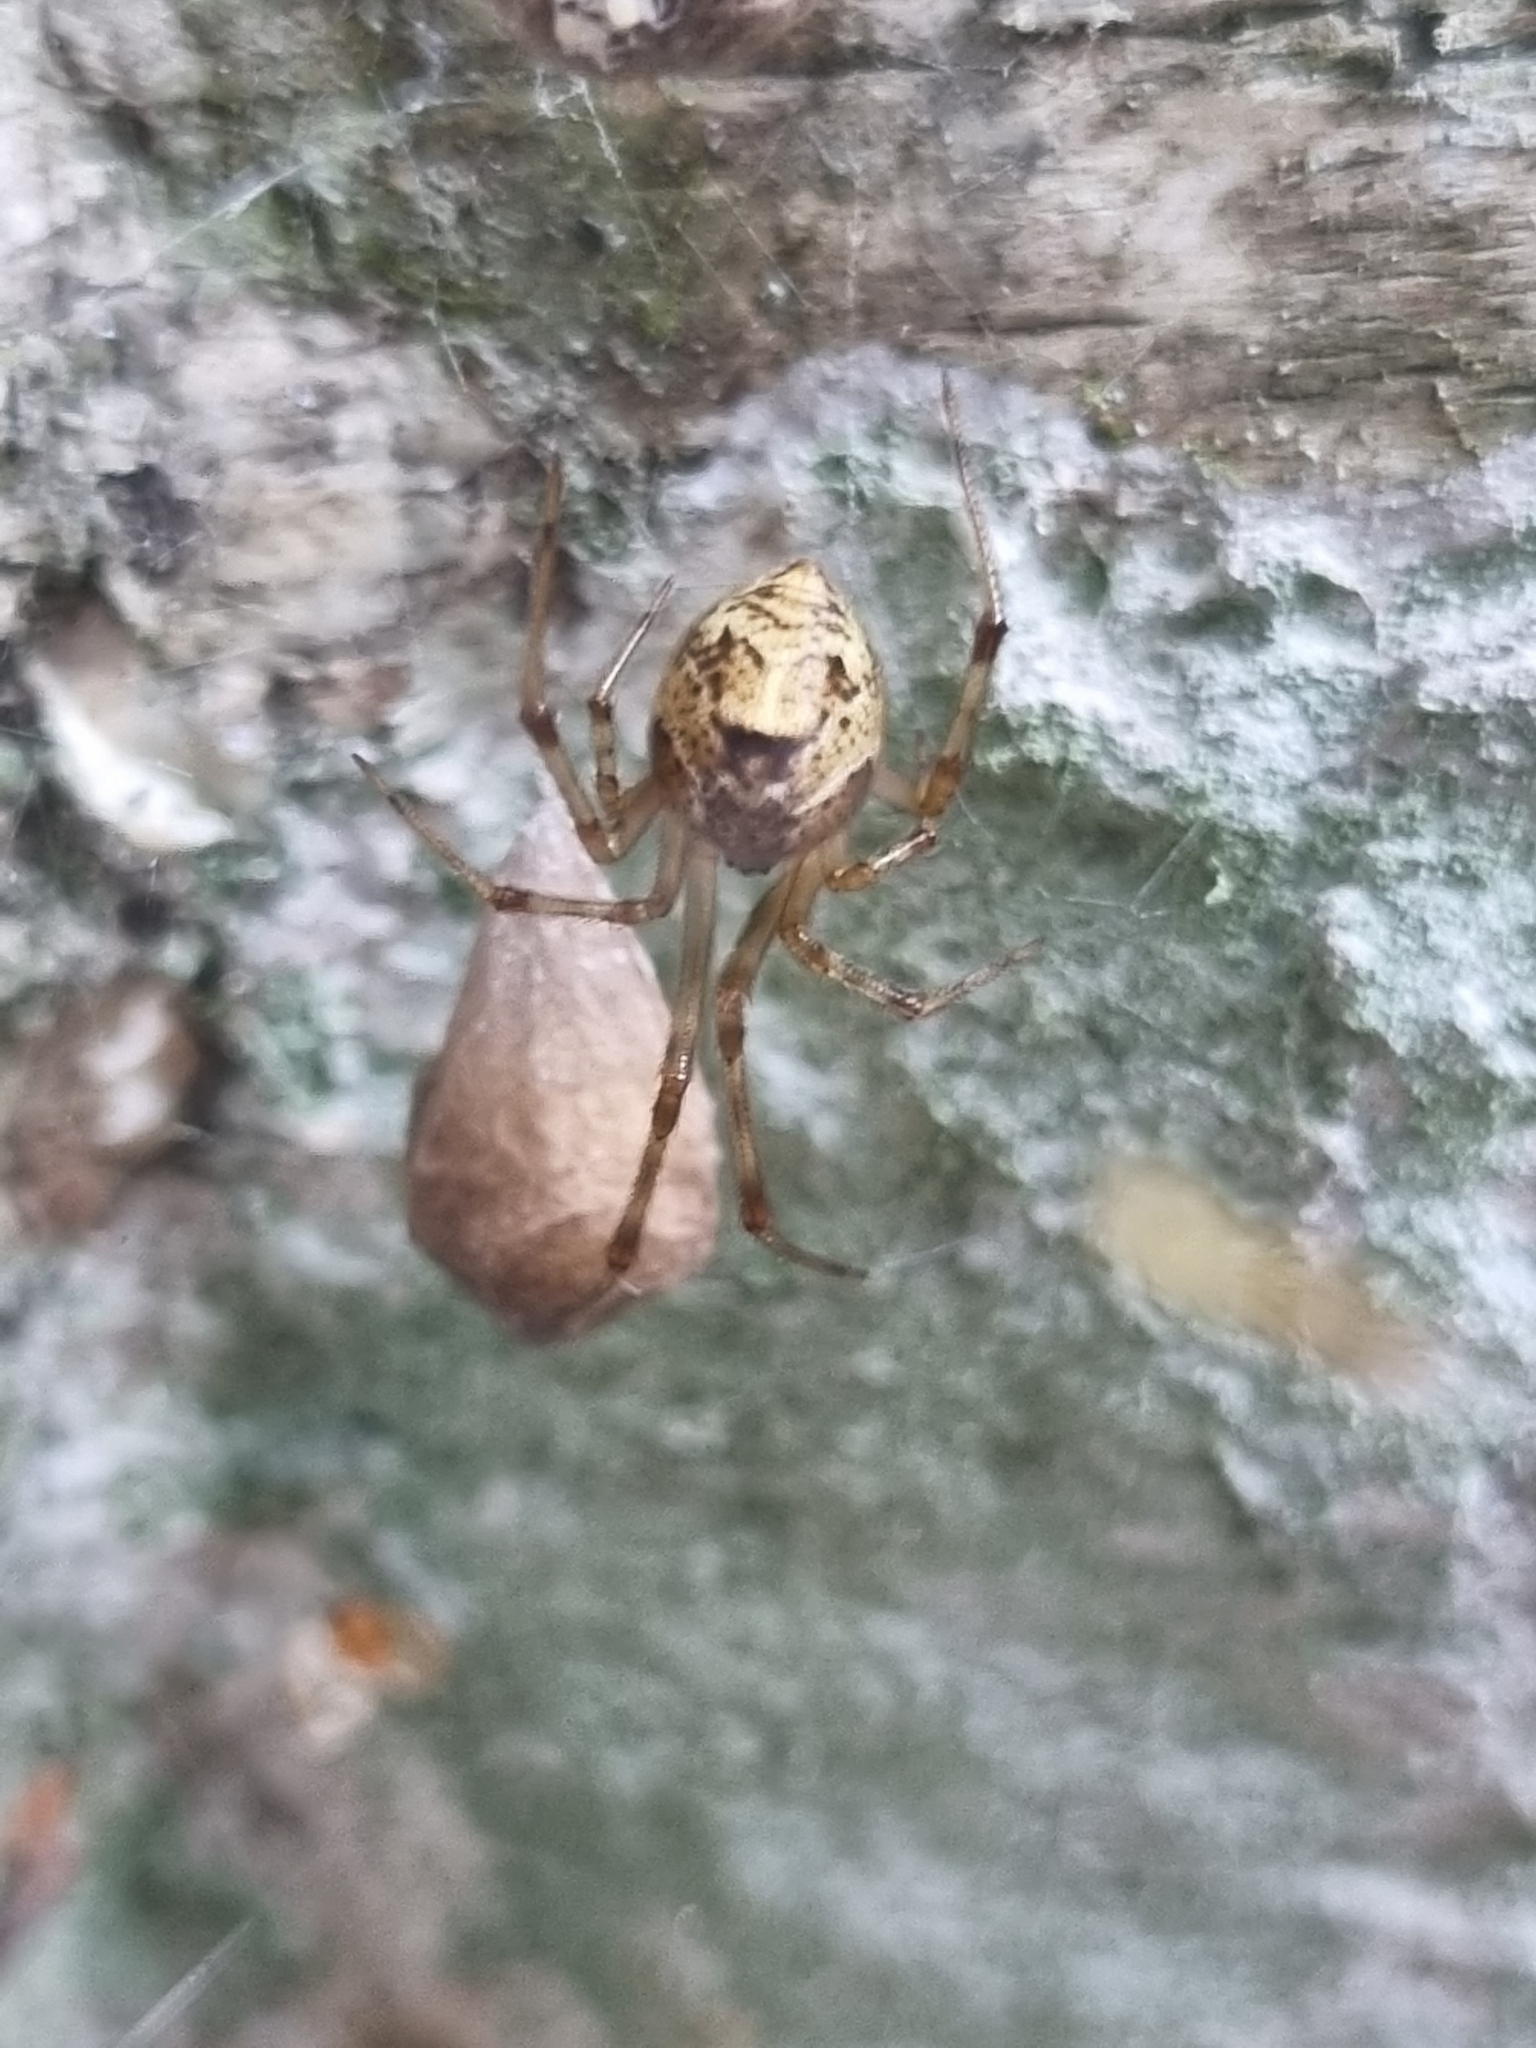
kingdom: Animalia
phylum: Arthropoda
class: Arachnida
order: Araneae
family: Theridiidae
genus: Parasteatoda
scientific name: Parasteatoda tepidariorum
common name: Common house spider
